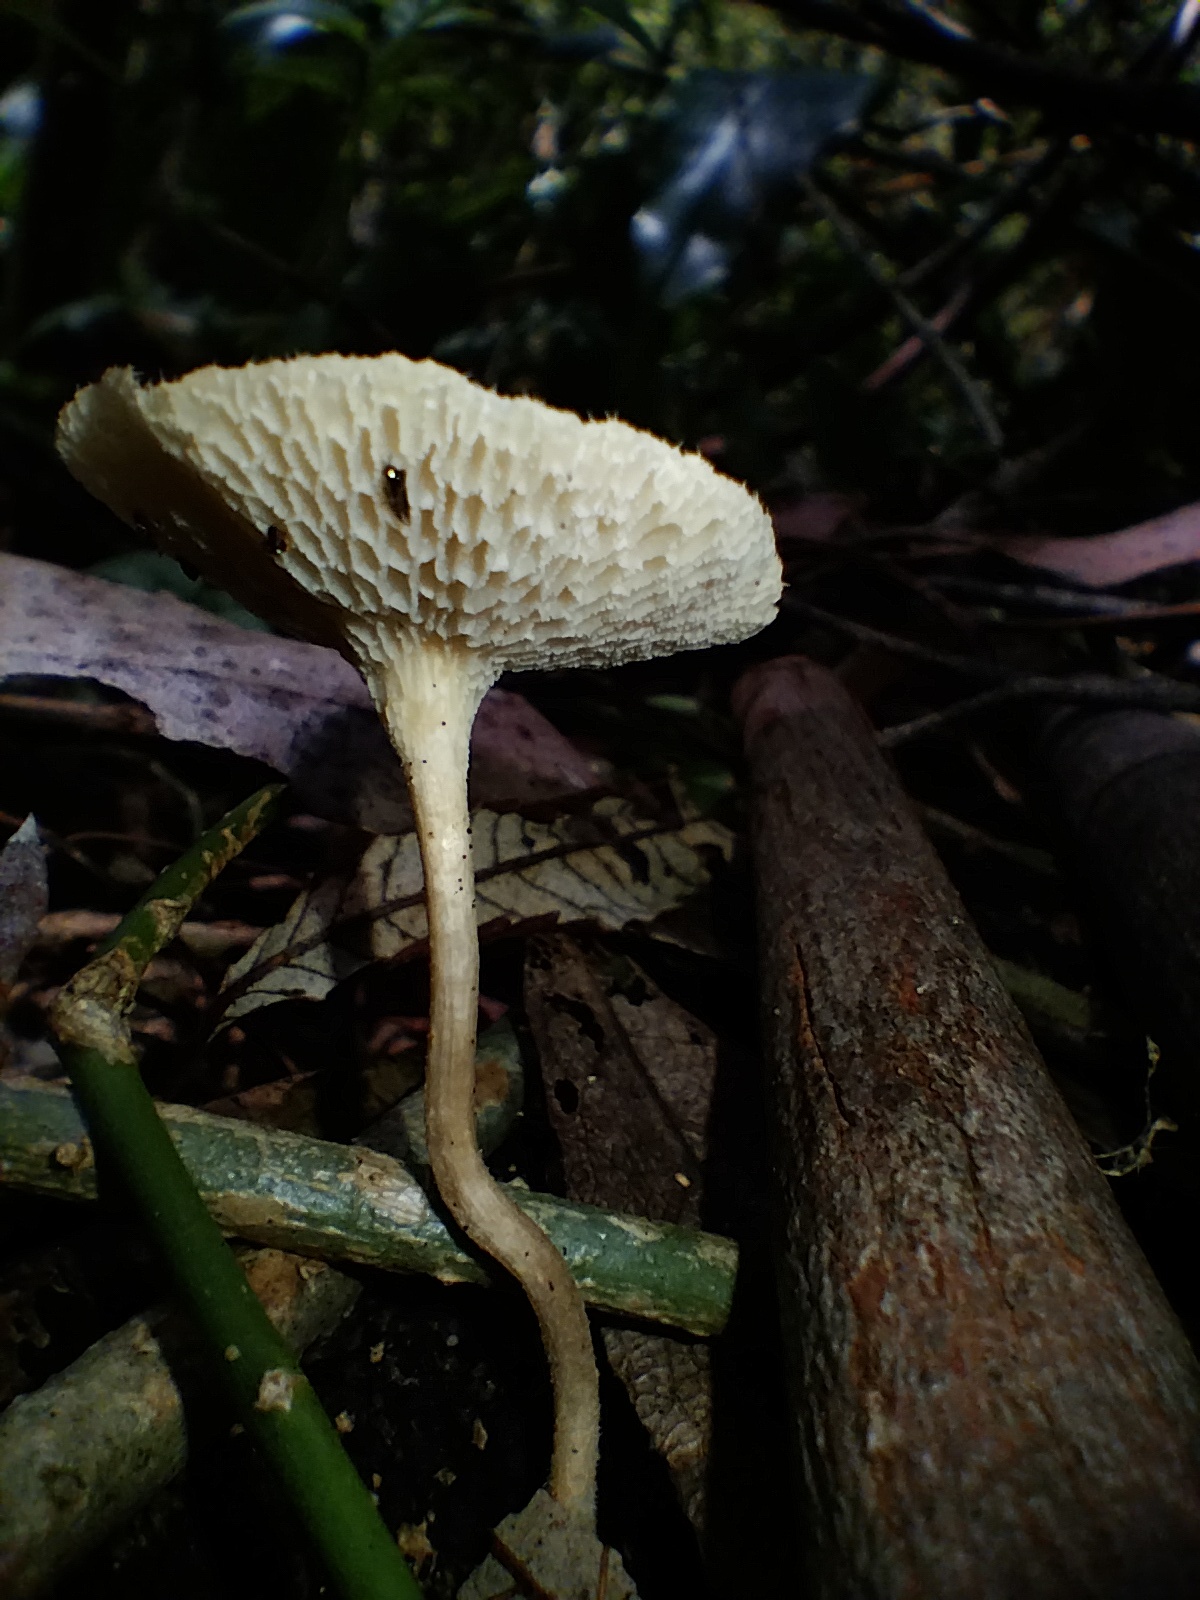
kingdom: Fungi
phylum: Basidiomycota
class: Agaricomycetes
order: Polyporales
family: Polyporaceae
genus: Lentinus
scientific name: Lentinus arcularius
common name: Spring polypore
